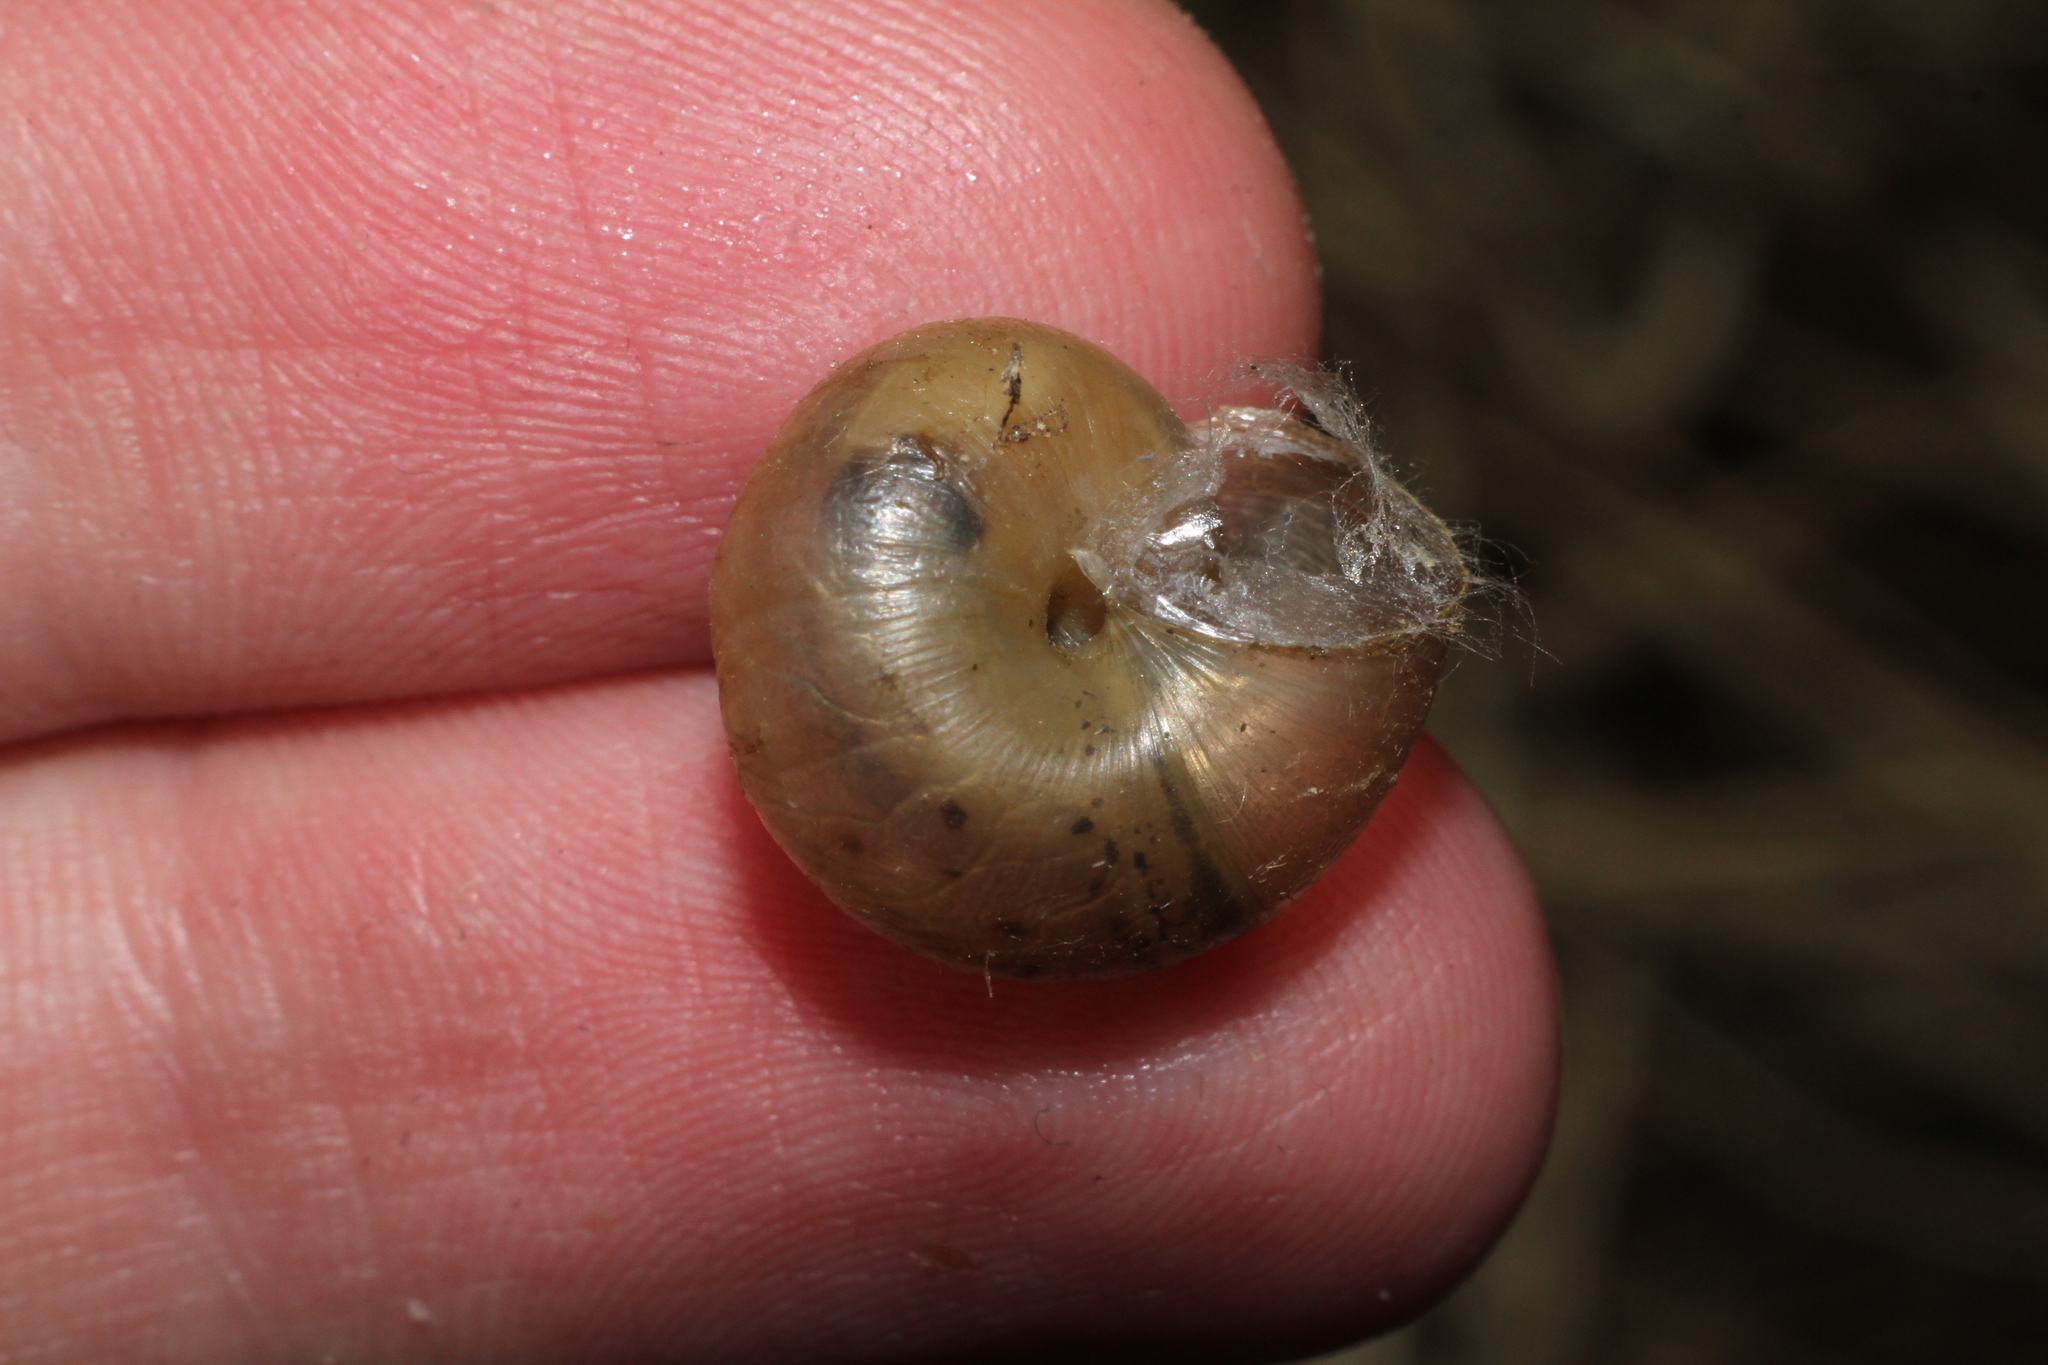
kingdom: Animalia
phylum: Mollusca
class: Gastropoda
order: Stylommatophora
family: Hygromiidae
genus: Monacha
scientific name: Monacha cantiana
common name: Kentish snail
